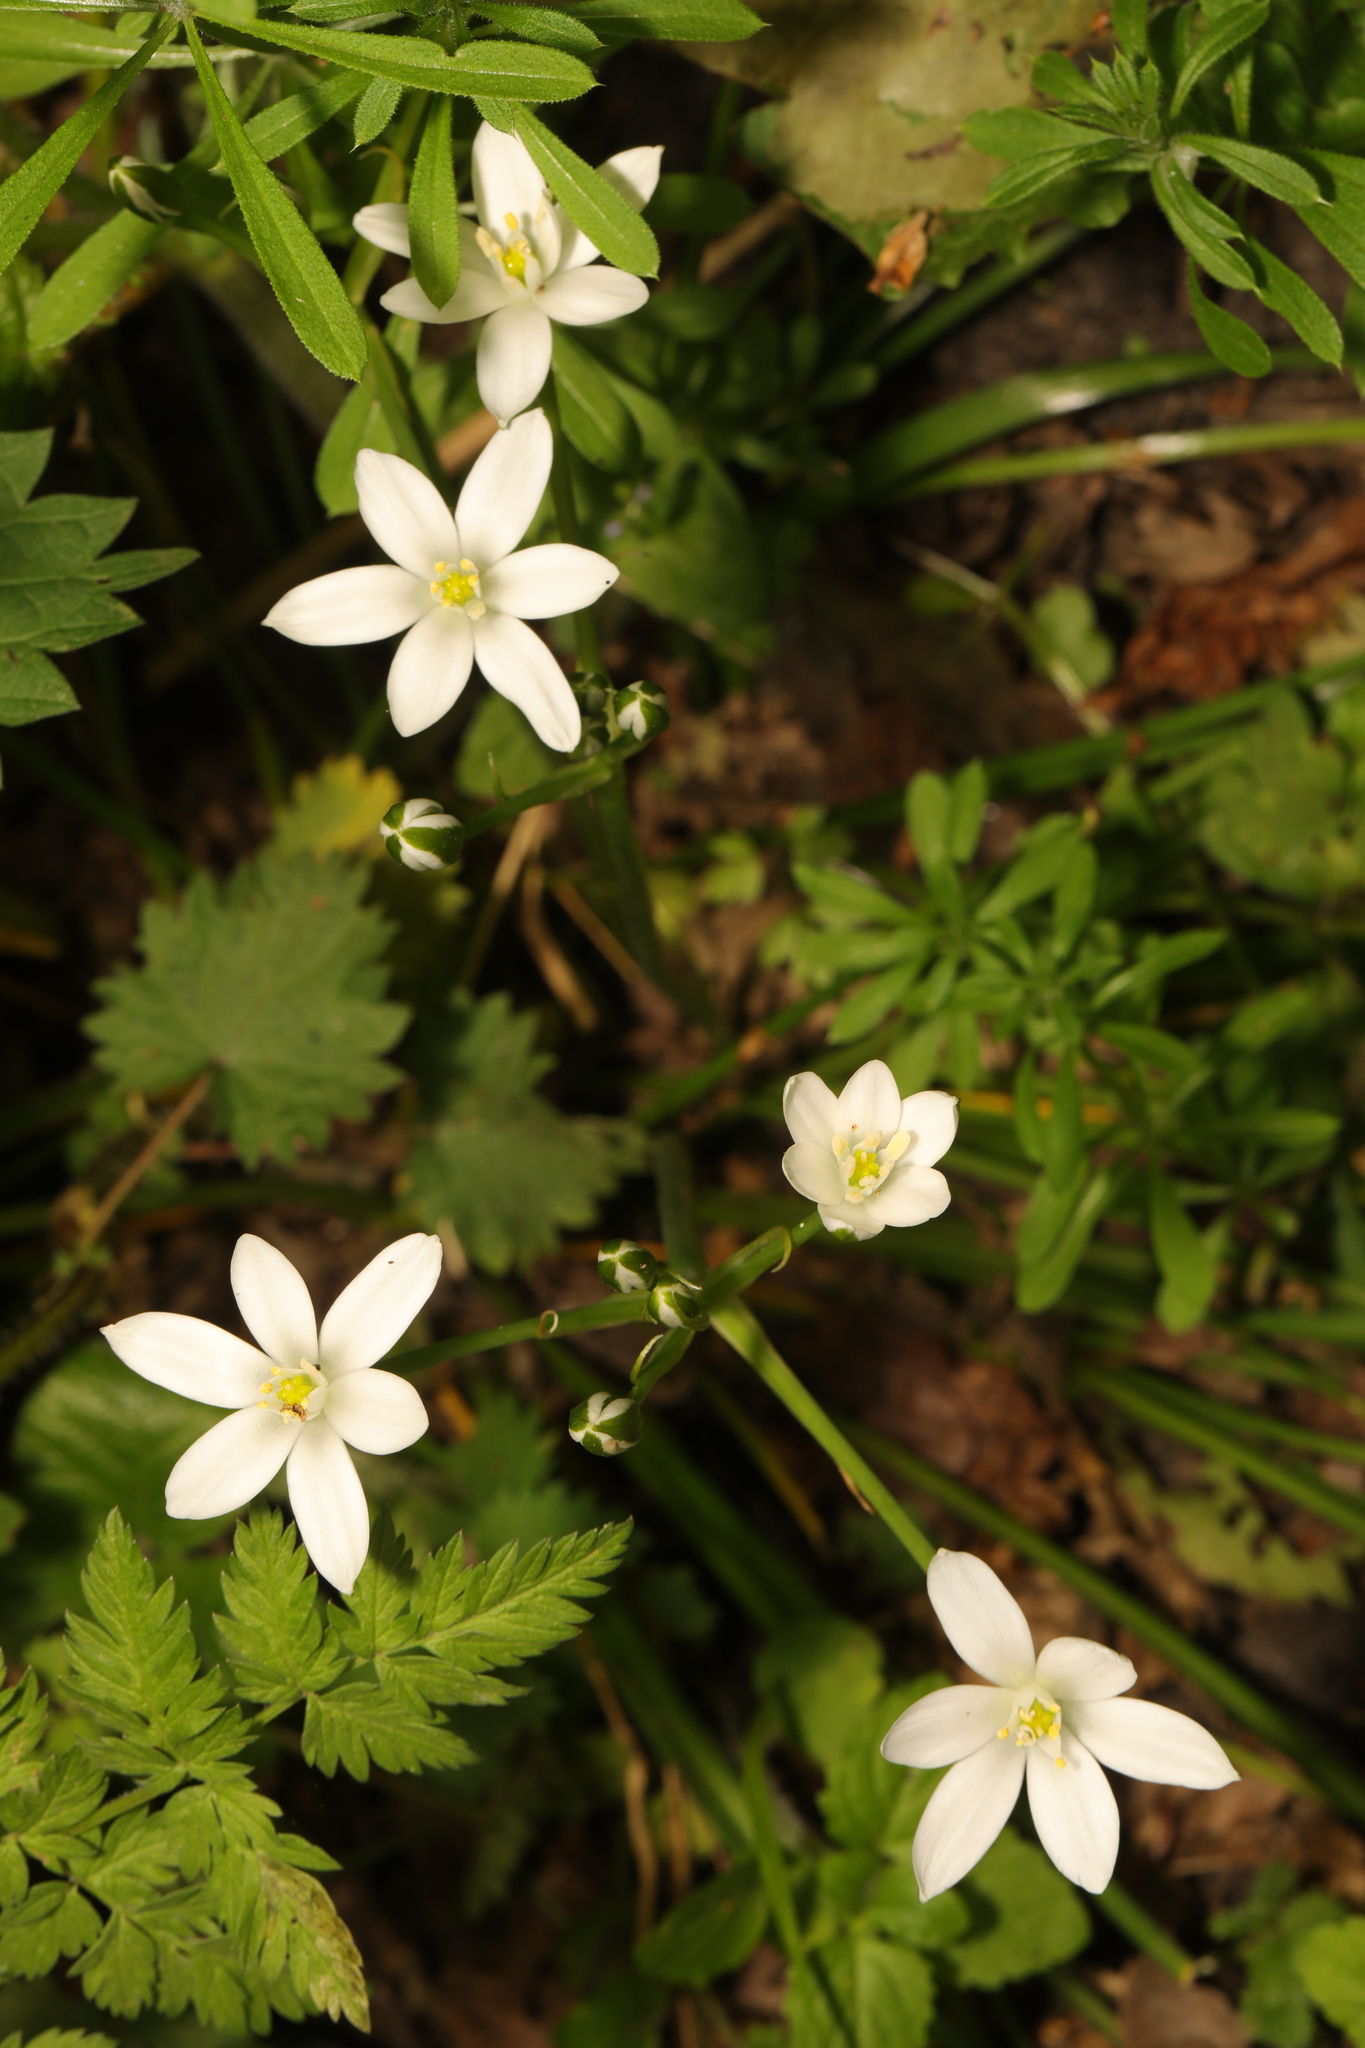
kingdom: Plantae
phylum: Tracheophyta
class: Liliopsida
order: Asparagales
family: Asparagaceae
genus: Ornithogalum
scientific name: Ornithogalum umbellatum
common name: Garden star-of-bethlehem
